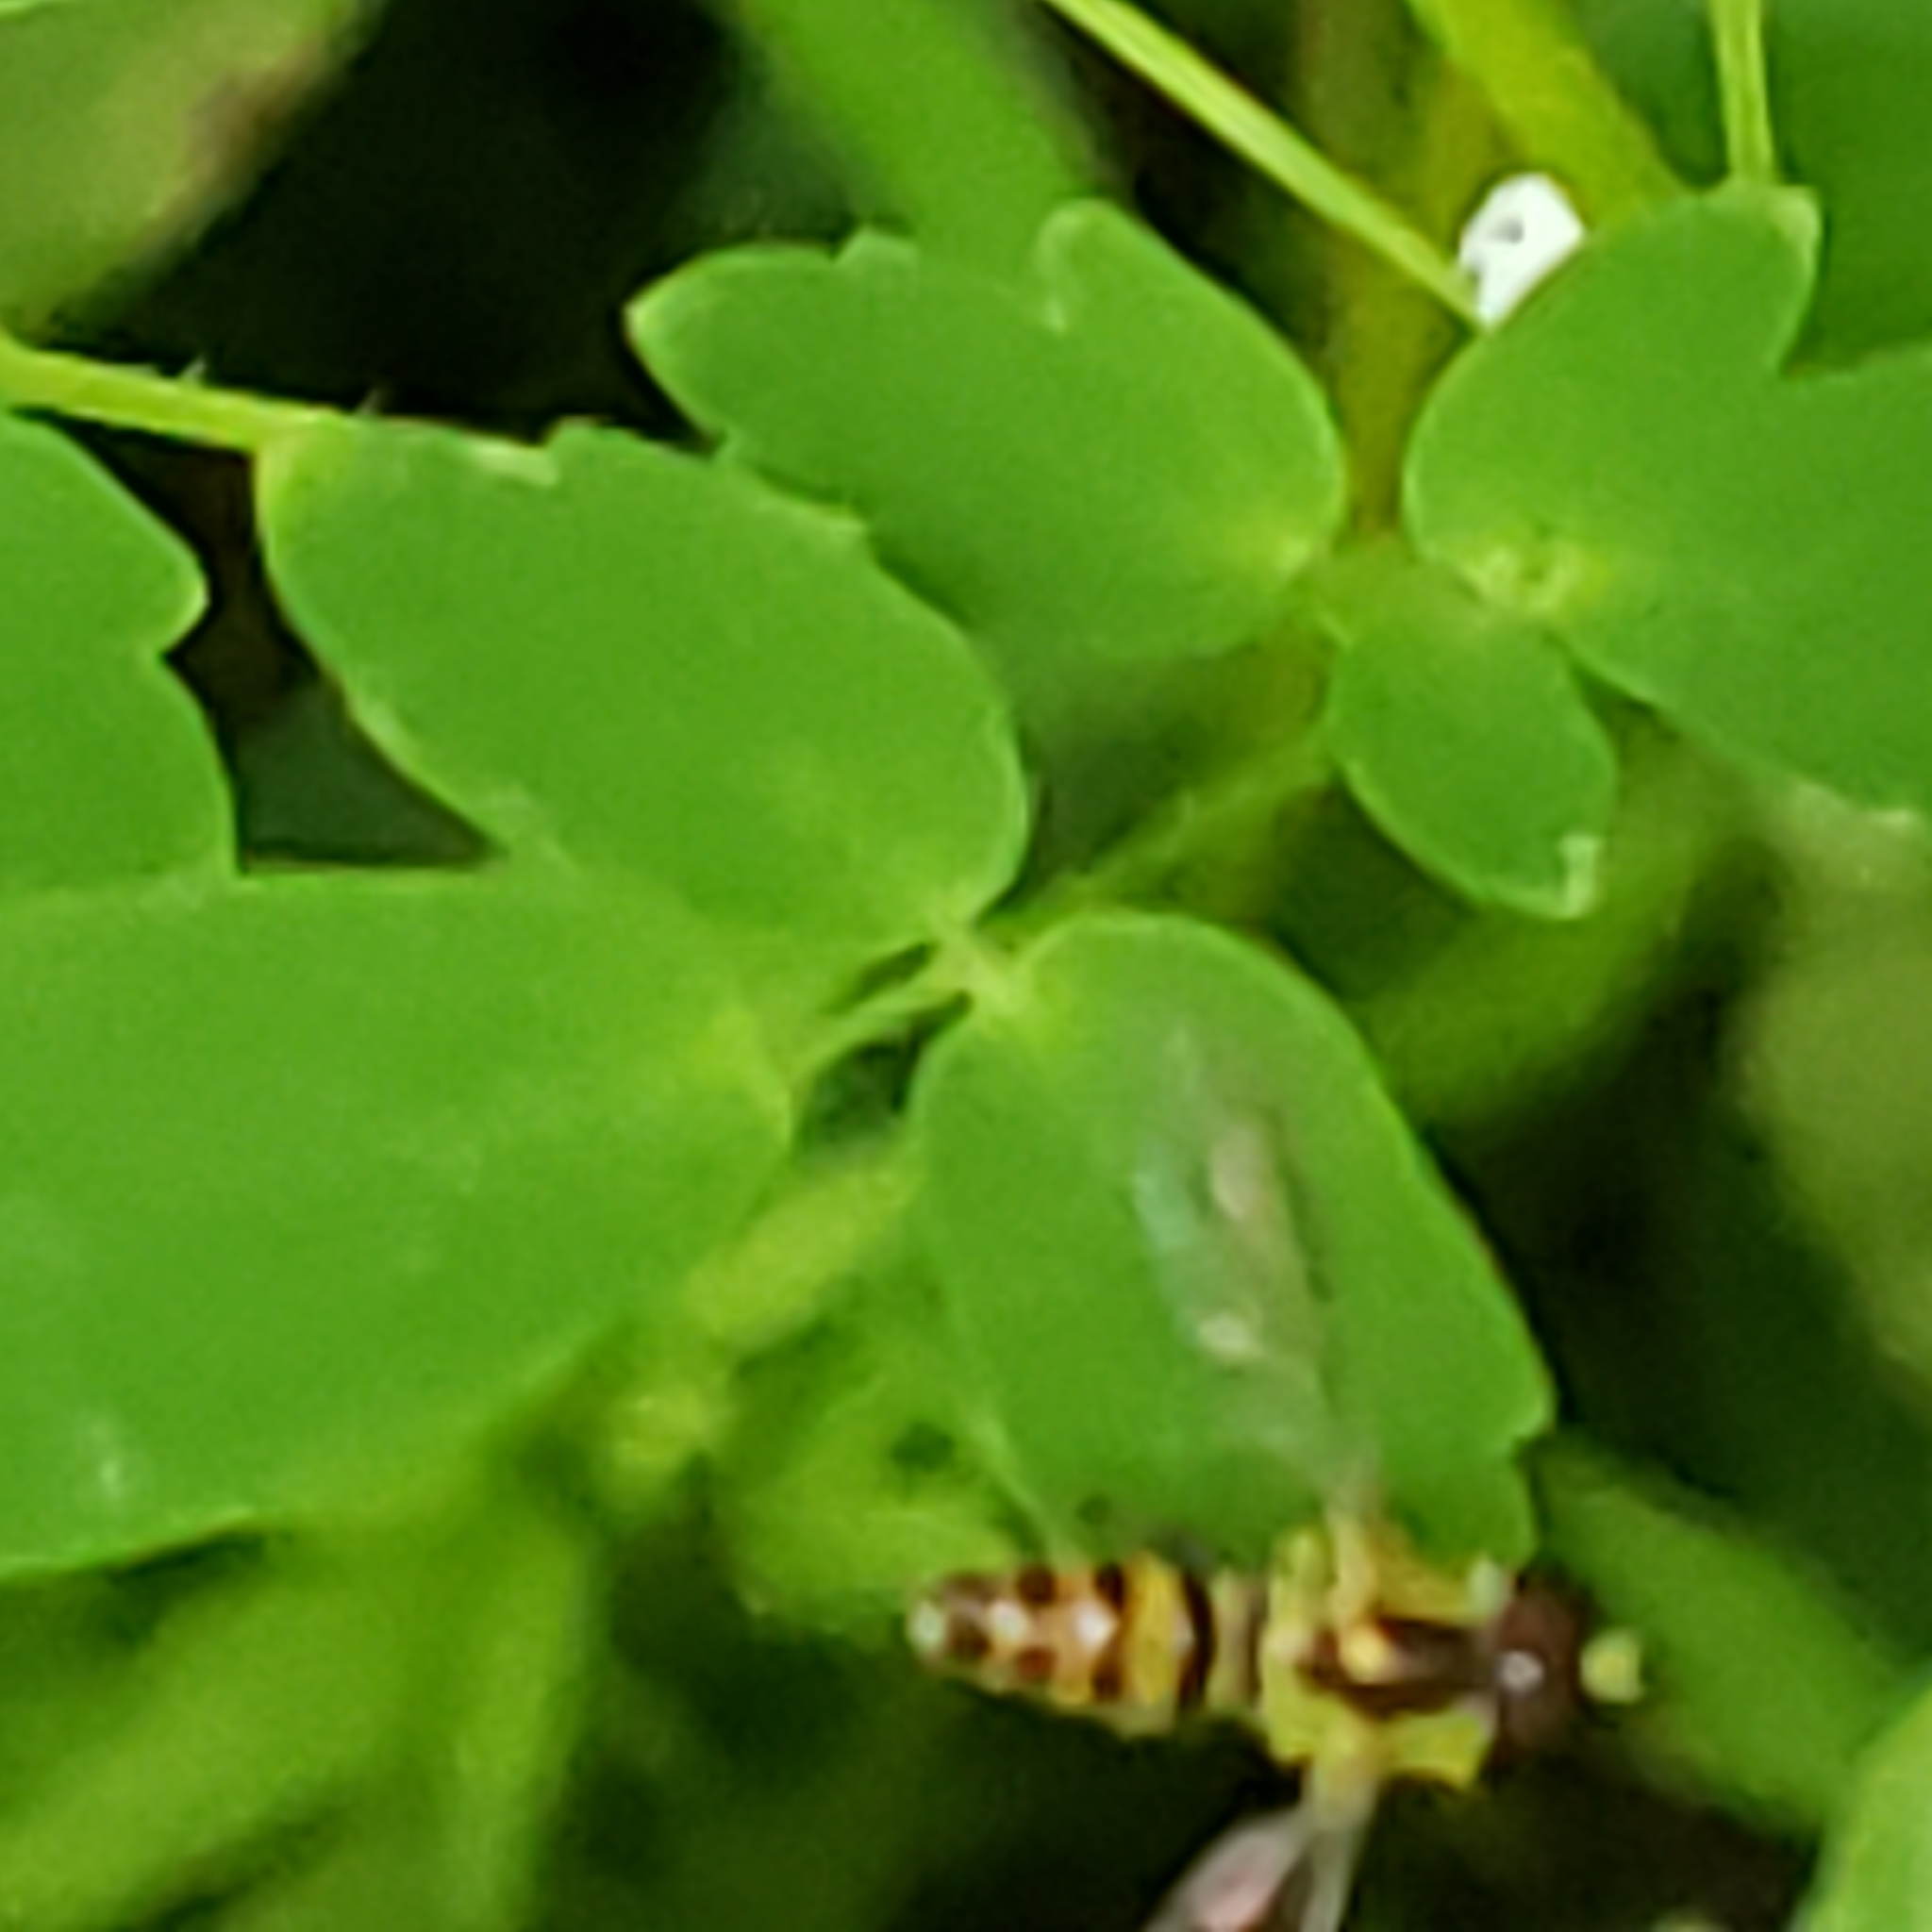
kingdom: Animalia
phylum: Arthropoda
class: Insecta
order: Diptera
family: Syrphidae
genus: Toxomerus
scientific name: Toxomerus geminatus
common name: Eastern calligrapher
